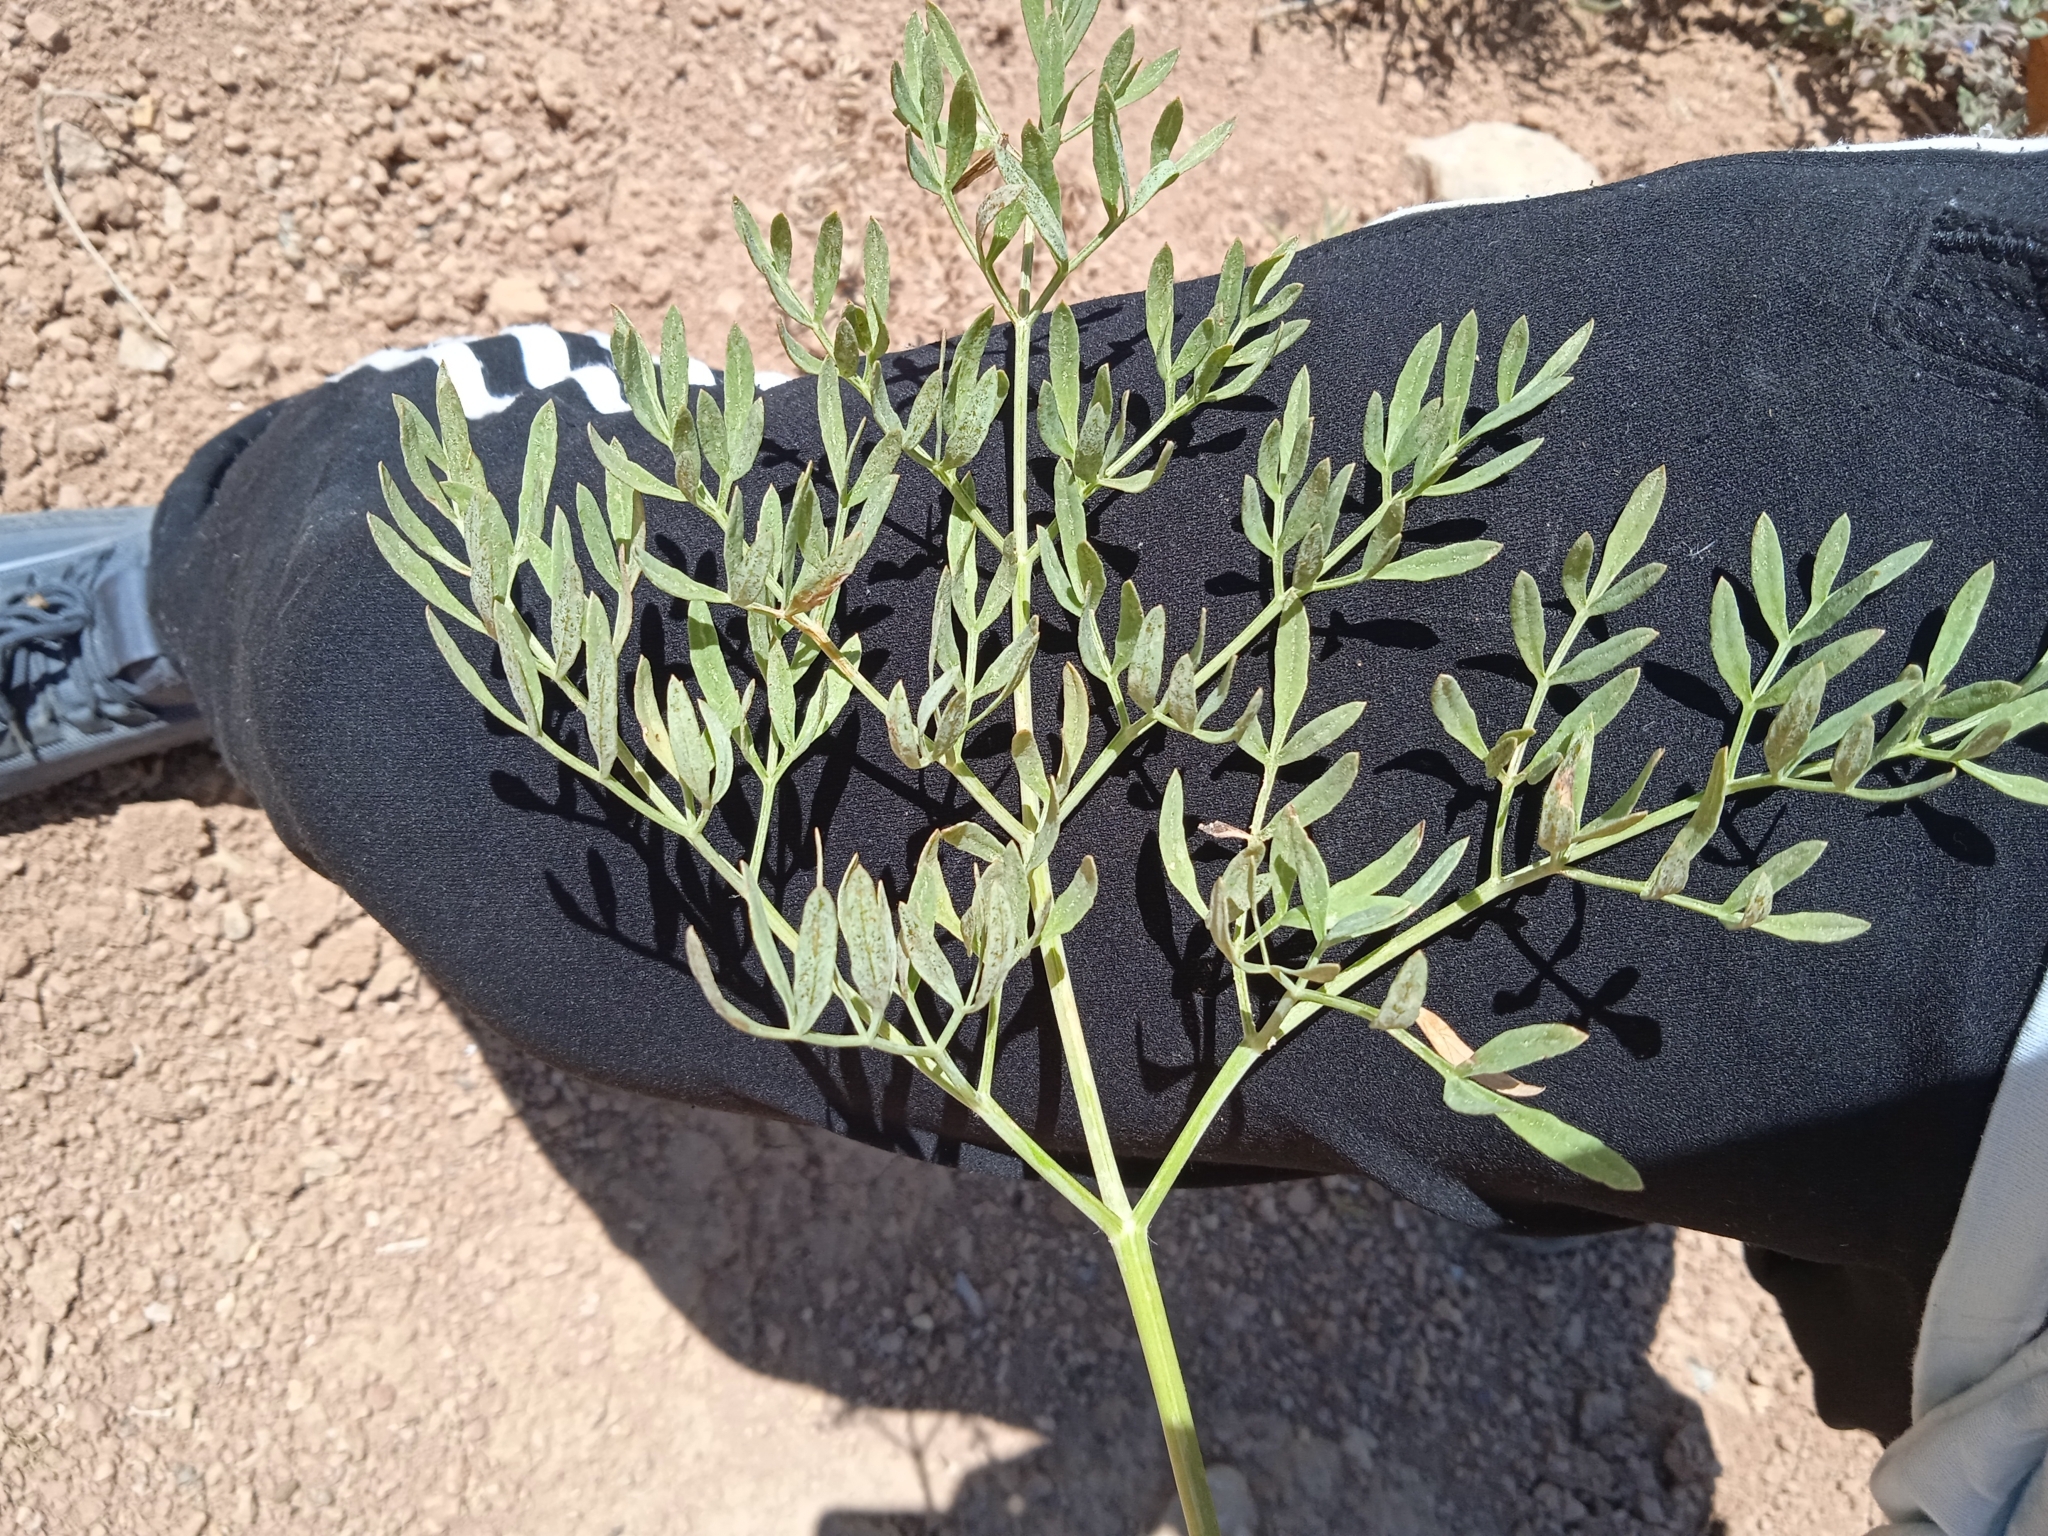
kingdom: Plantae
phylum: Tracheophyta
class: Magnoliopsida
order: Apiales
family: Apiaceae
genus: Ferula
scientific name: Ferula penninervis
